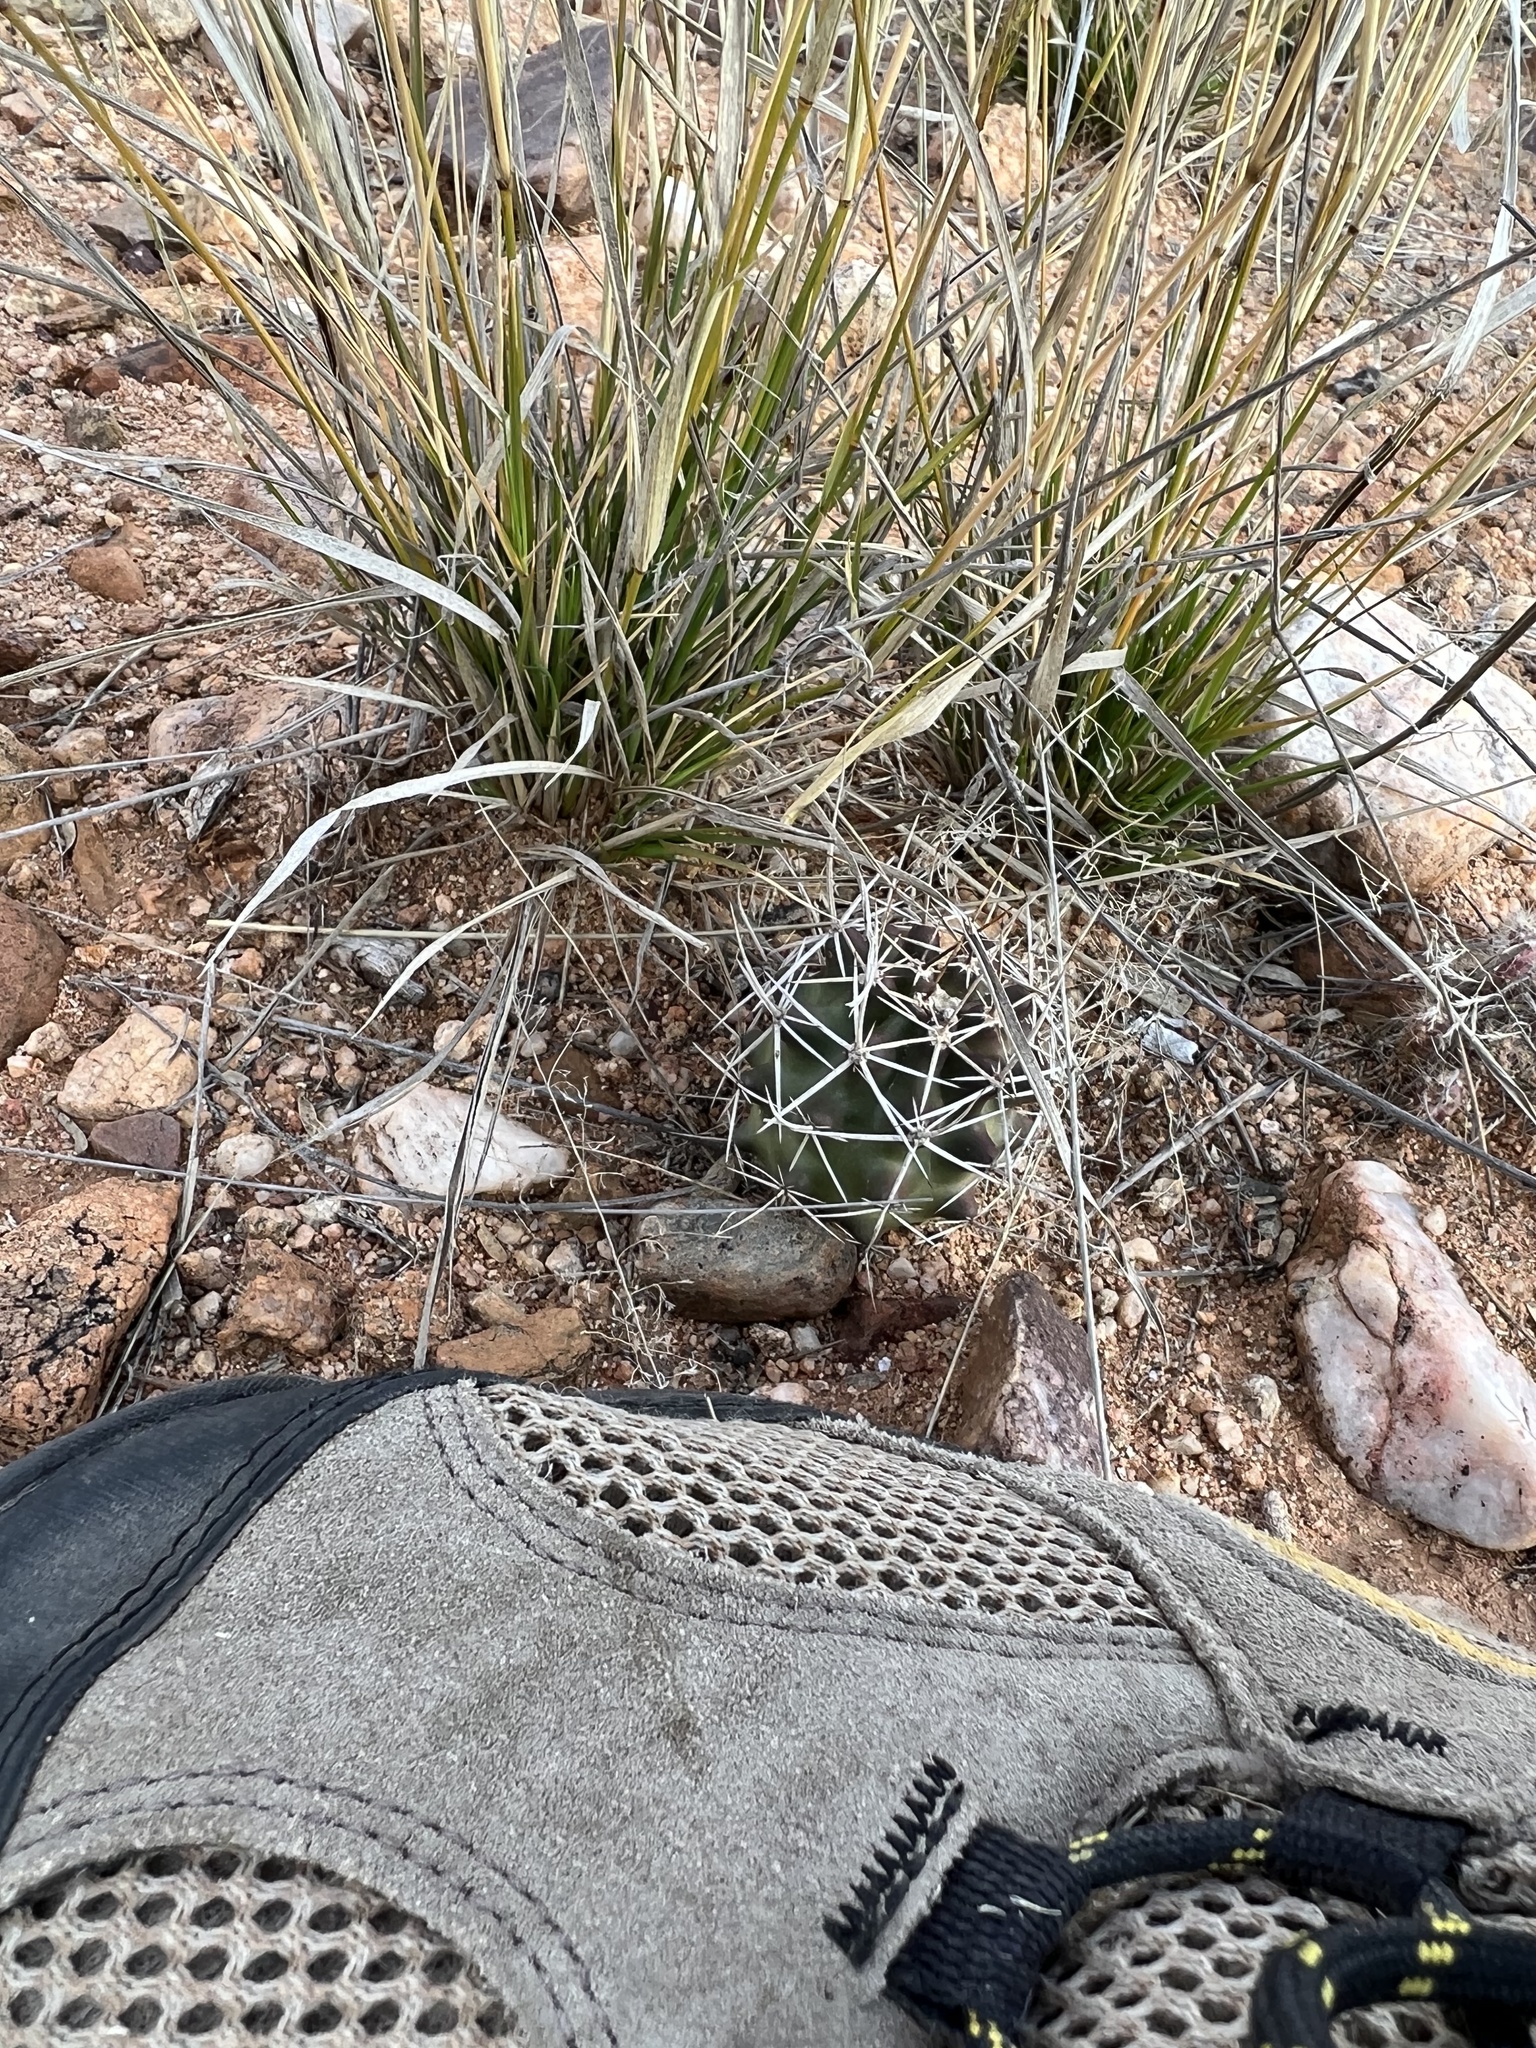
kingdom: Plantae
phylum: Tracheophyta
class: Magnoliopsida
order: Caryophyllales
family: Cactaceae
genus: Echinocereus
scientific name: Echinocereus fendleri
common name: Fendler's hedgehog cactus
